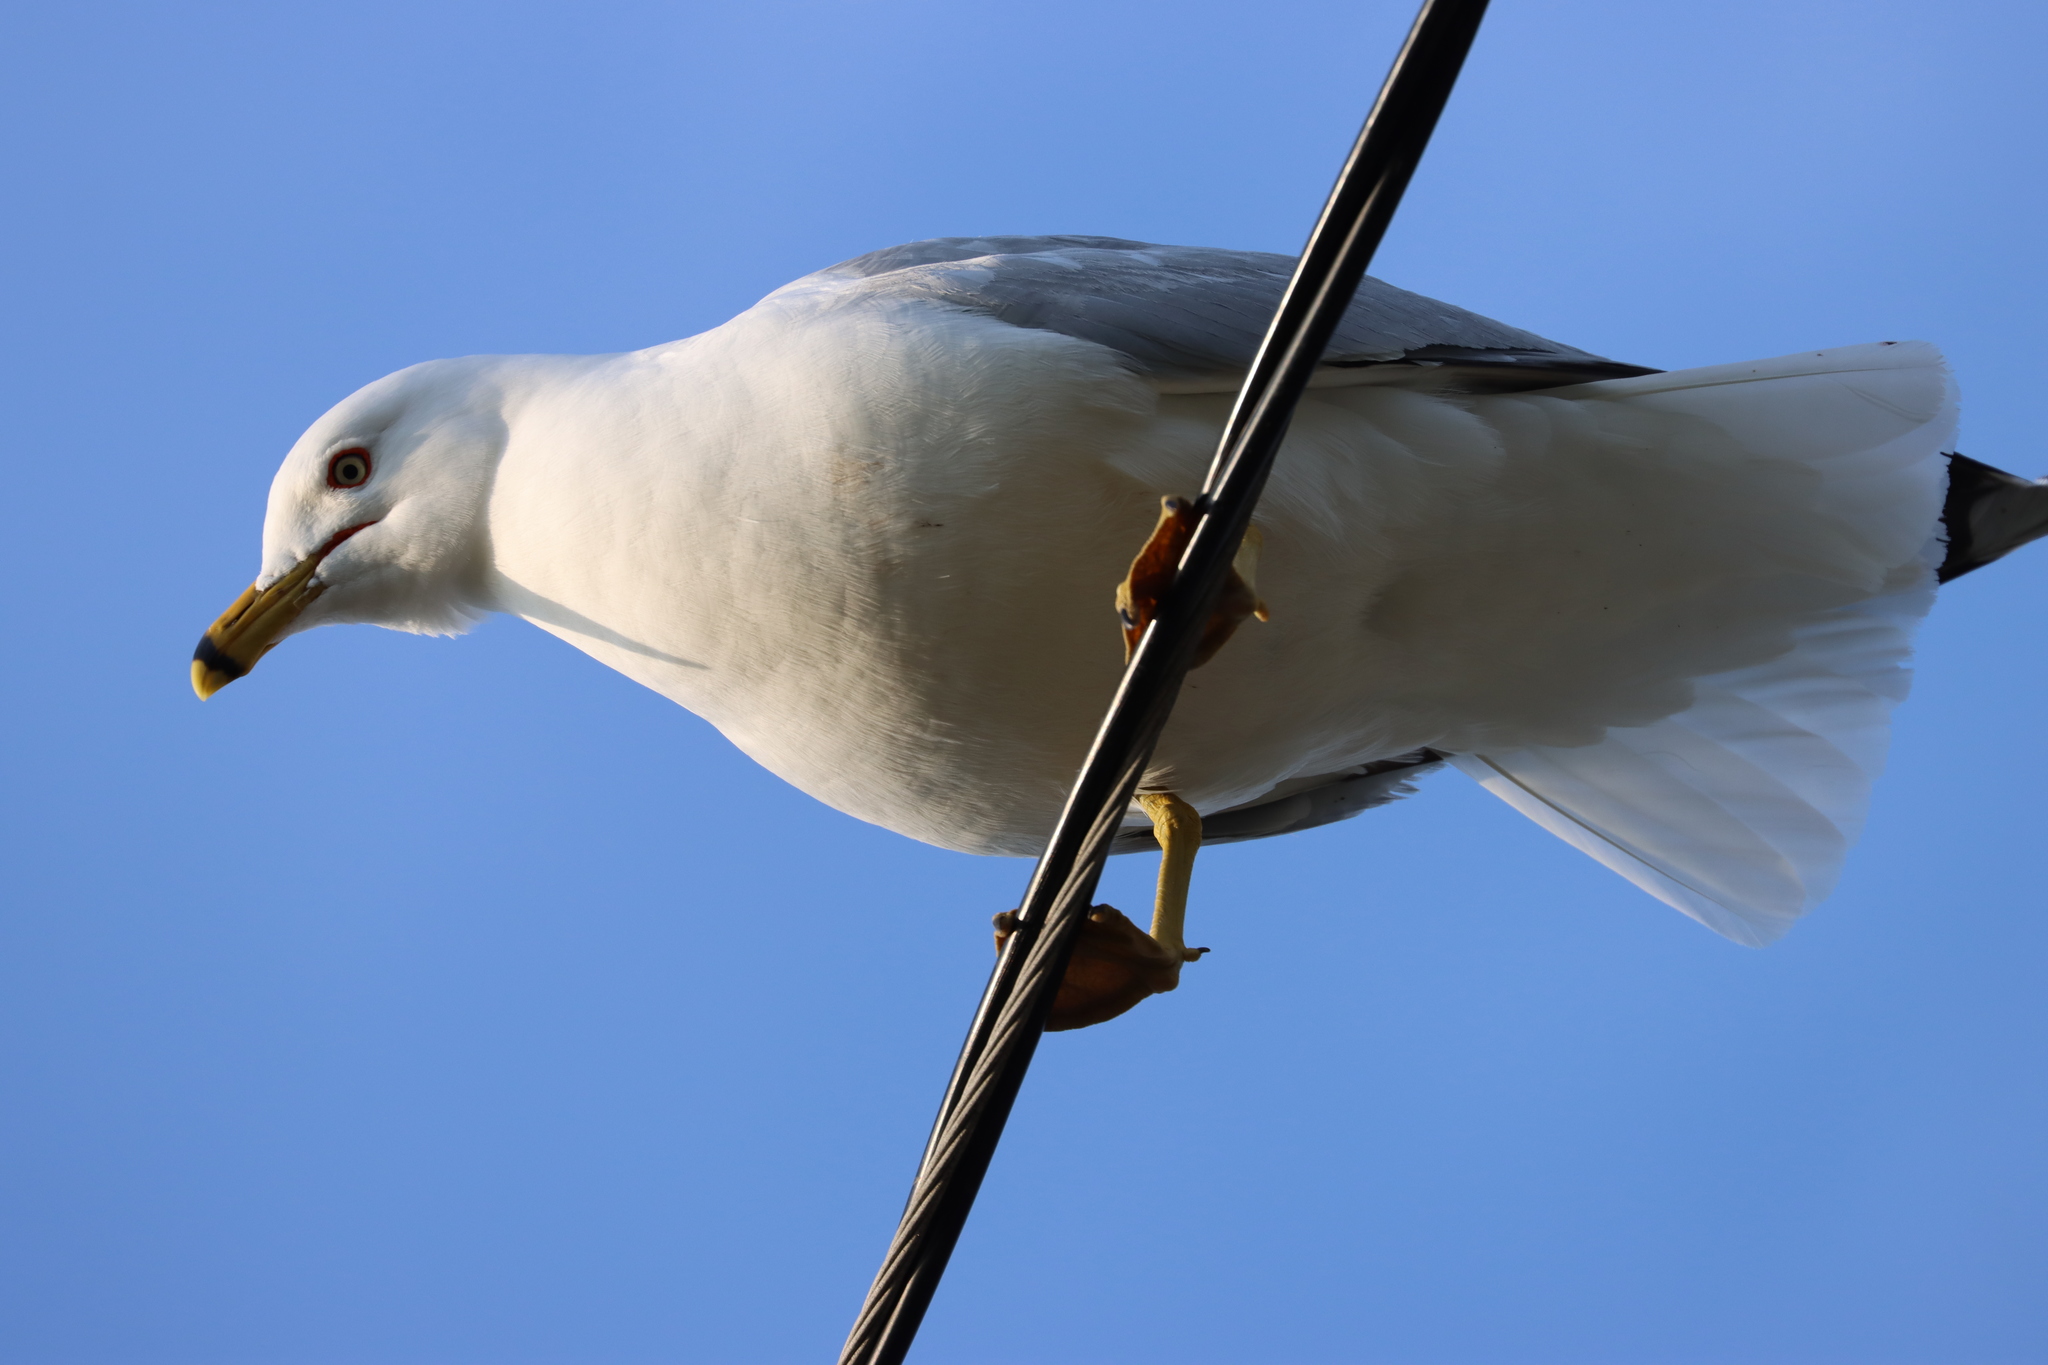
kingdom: Animalia
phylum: Chordata
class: Aves
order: Charadriiformes
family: Laridae
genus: Larus
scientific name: Larus delawarensis
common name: Ring-billed gull
